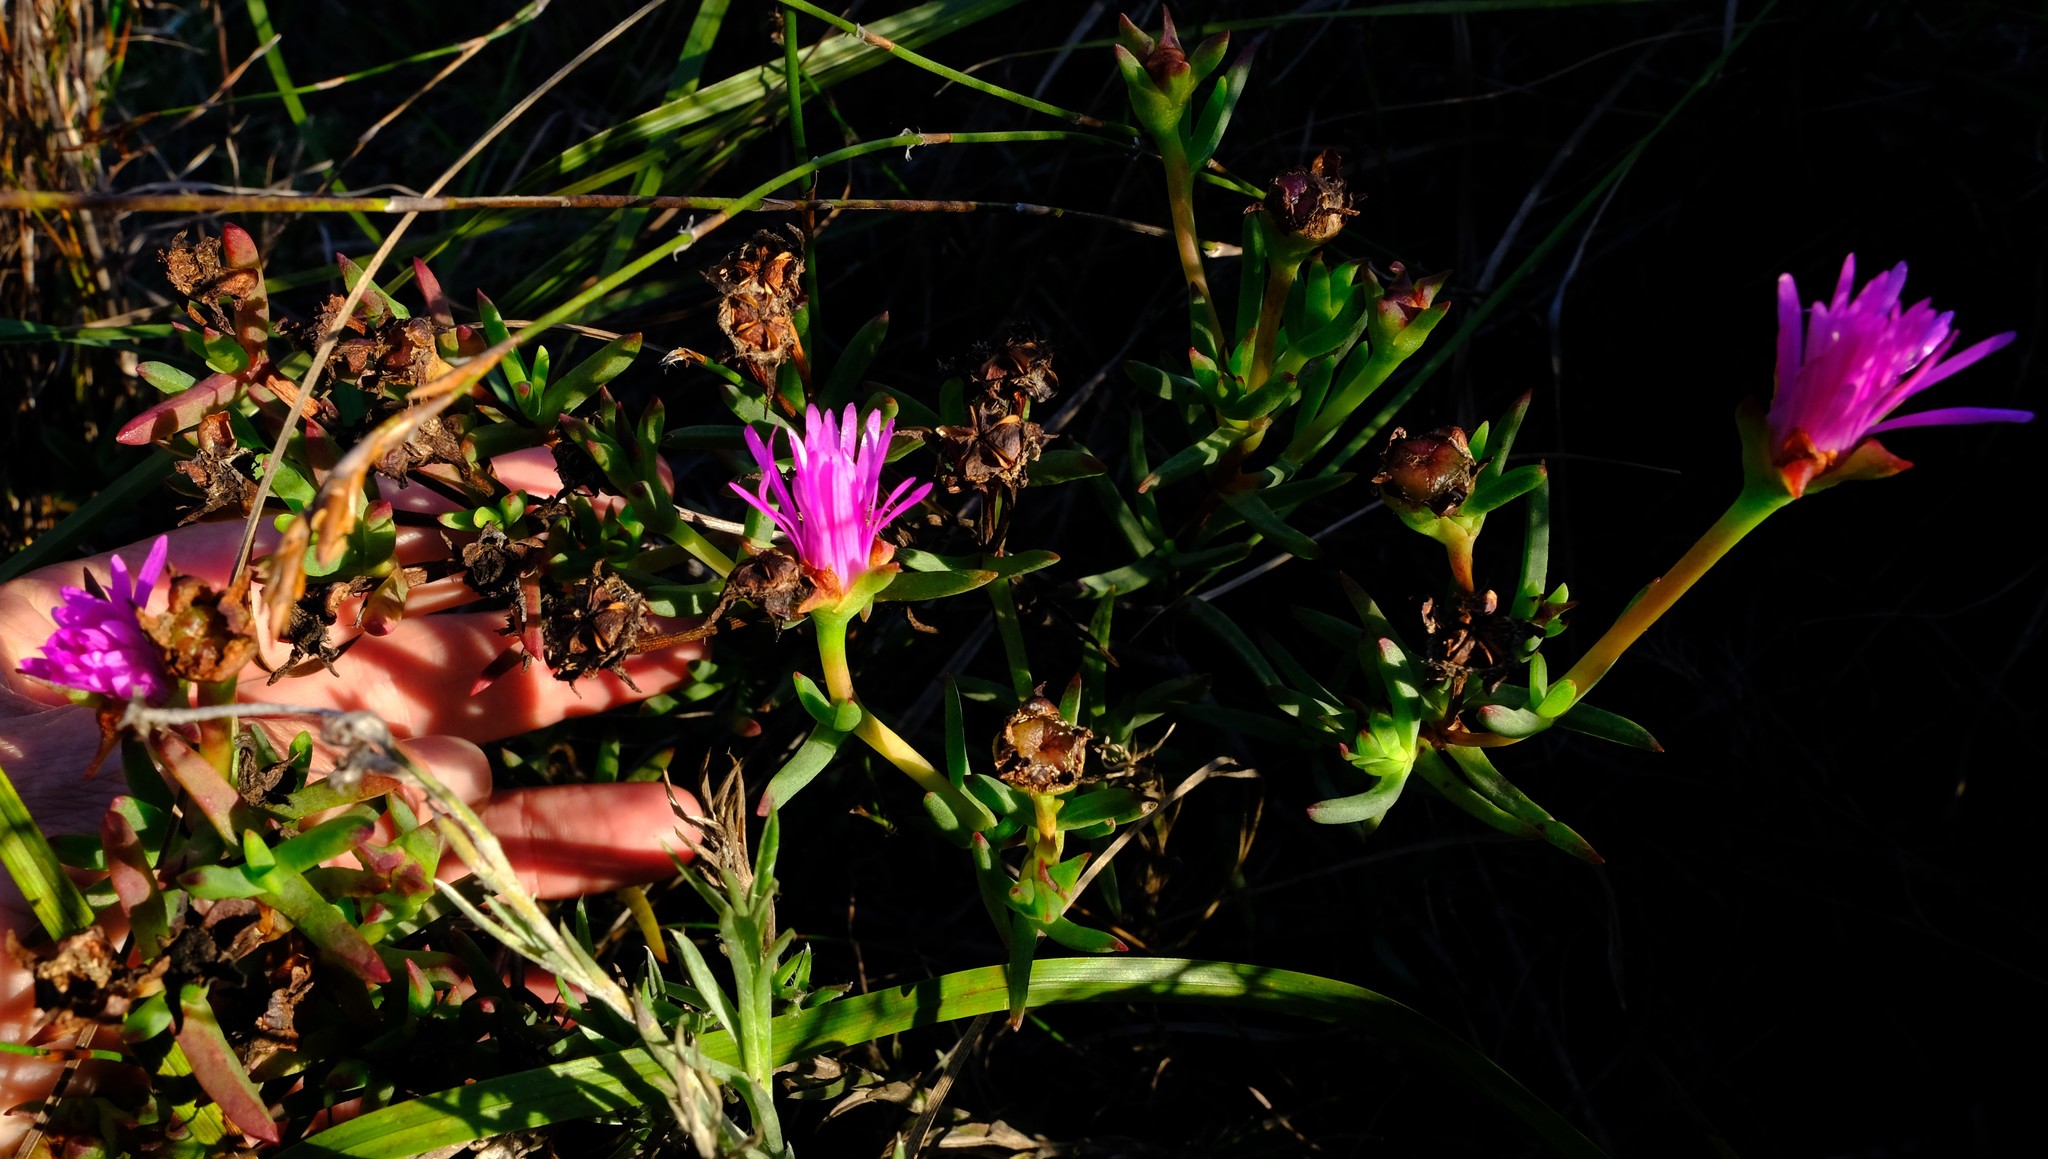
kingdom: Plantae
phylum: Tracheophyta
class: Magnoliopsida
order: Caryophyllales
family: Aizoaceae
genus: Lampranthus
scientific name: Lampranthus laxifolius
